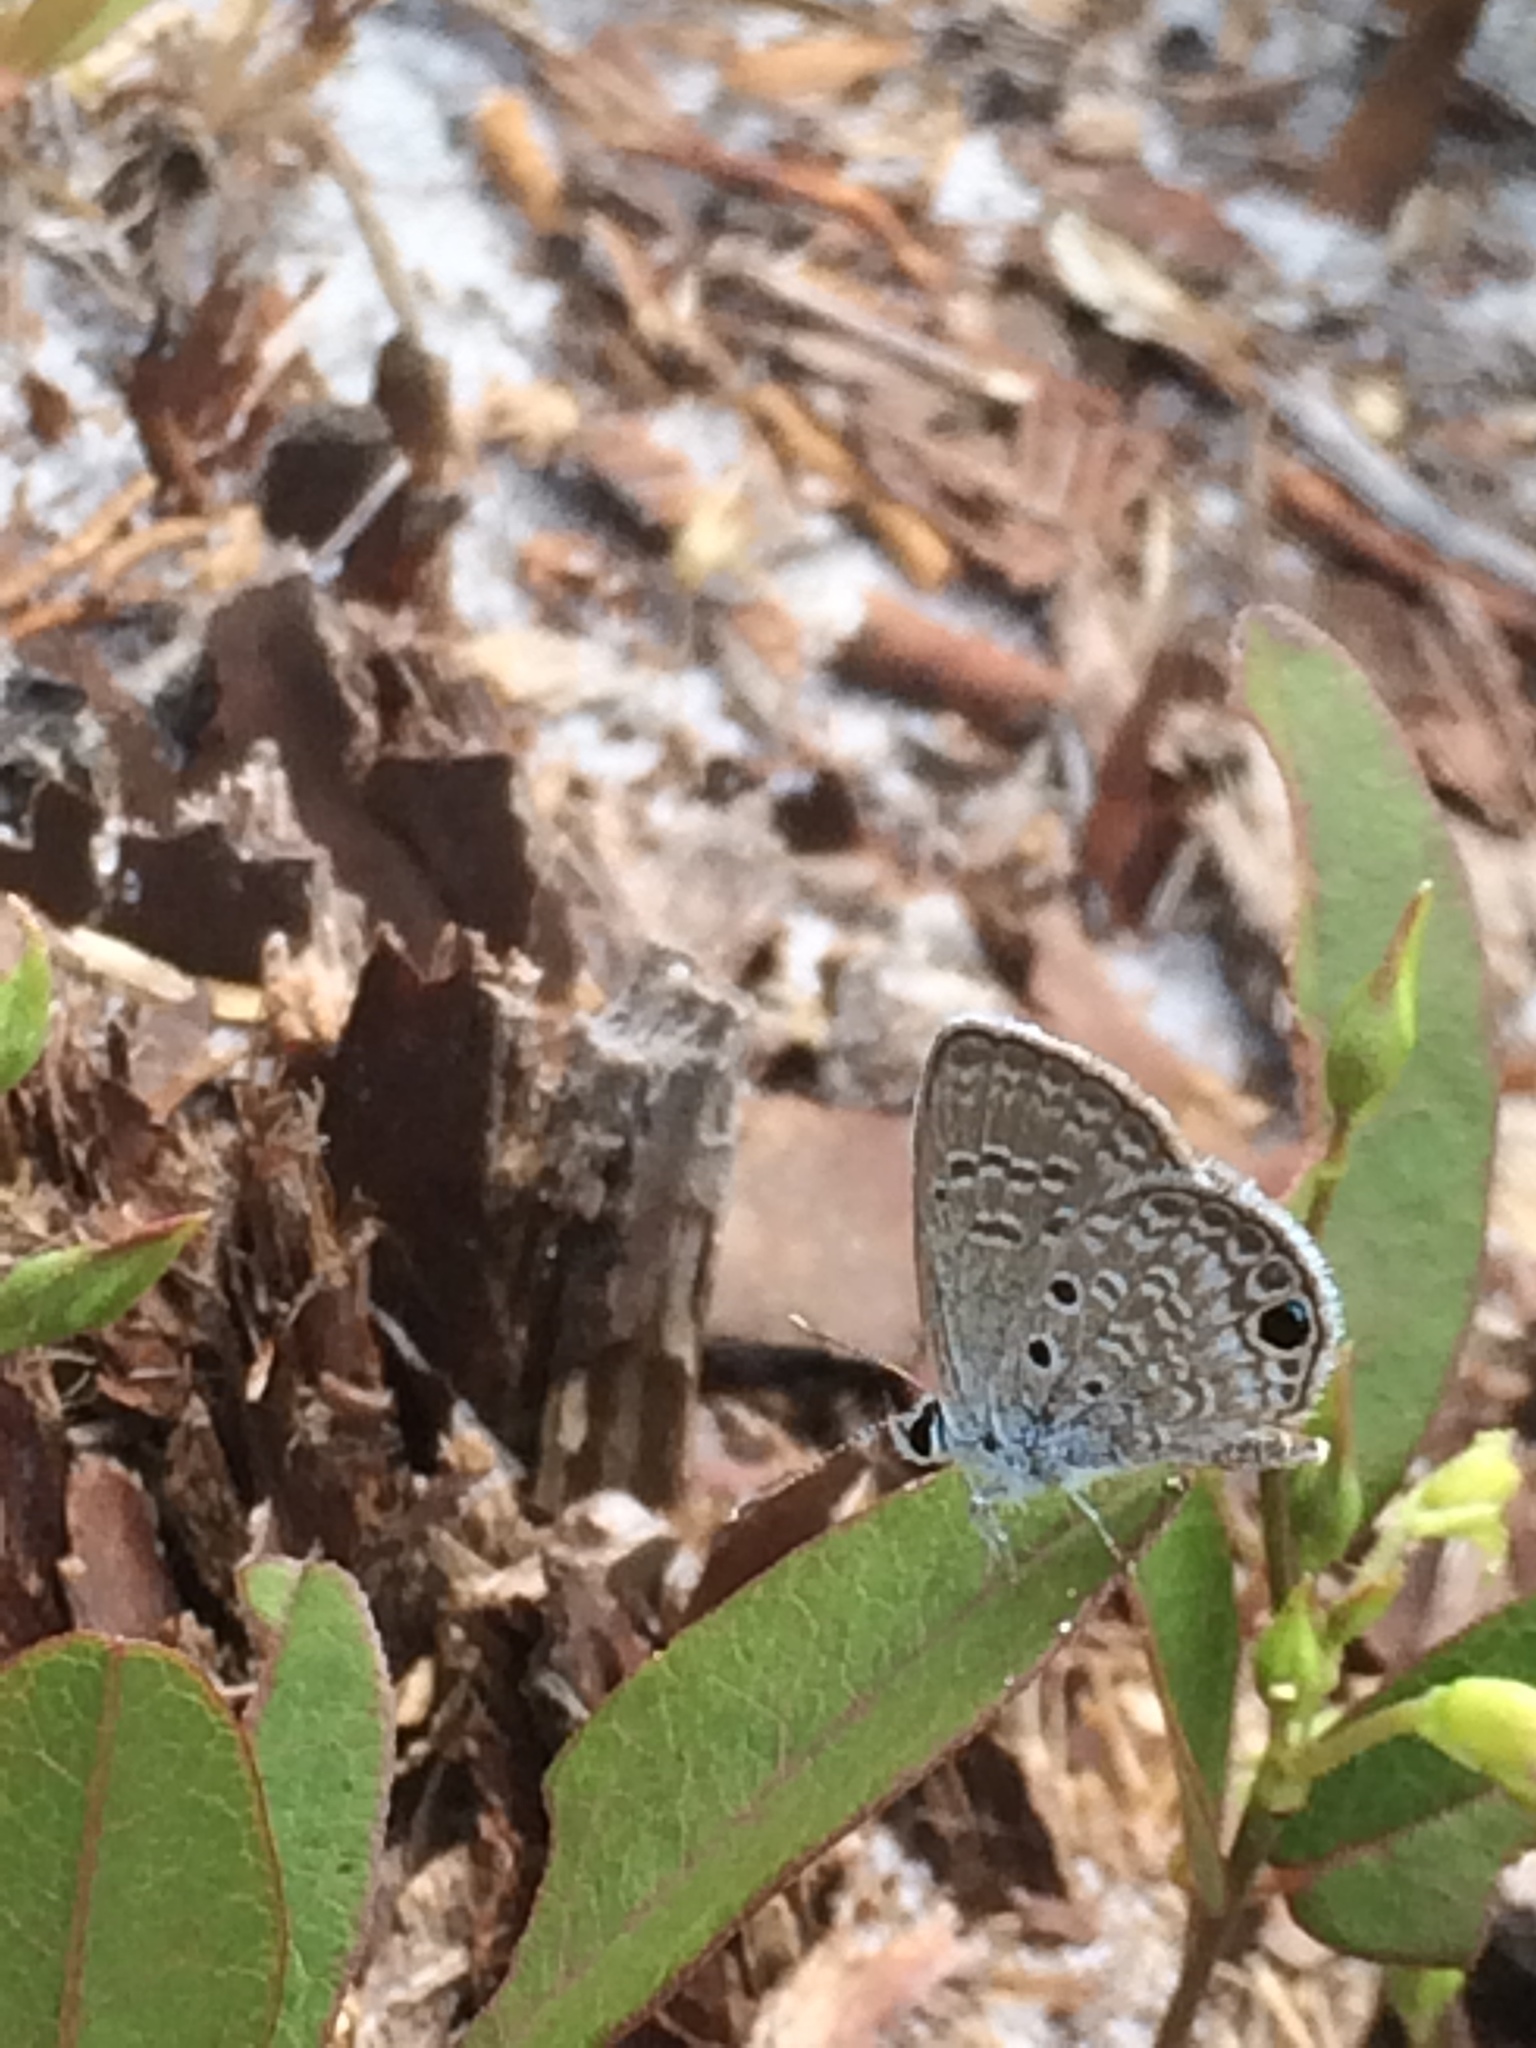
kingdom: Animalia
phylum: Arthropoda
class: Insecta
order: Lepidoptera
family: Lycaenidae
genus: Hemiargus
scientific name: Hemiargus ceraunus
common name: Ceraunus blue
